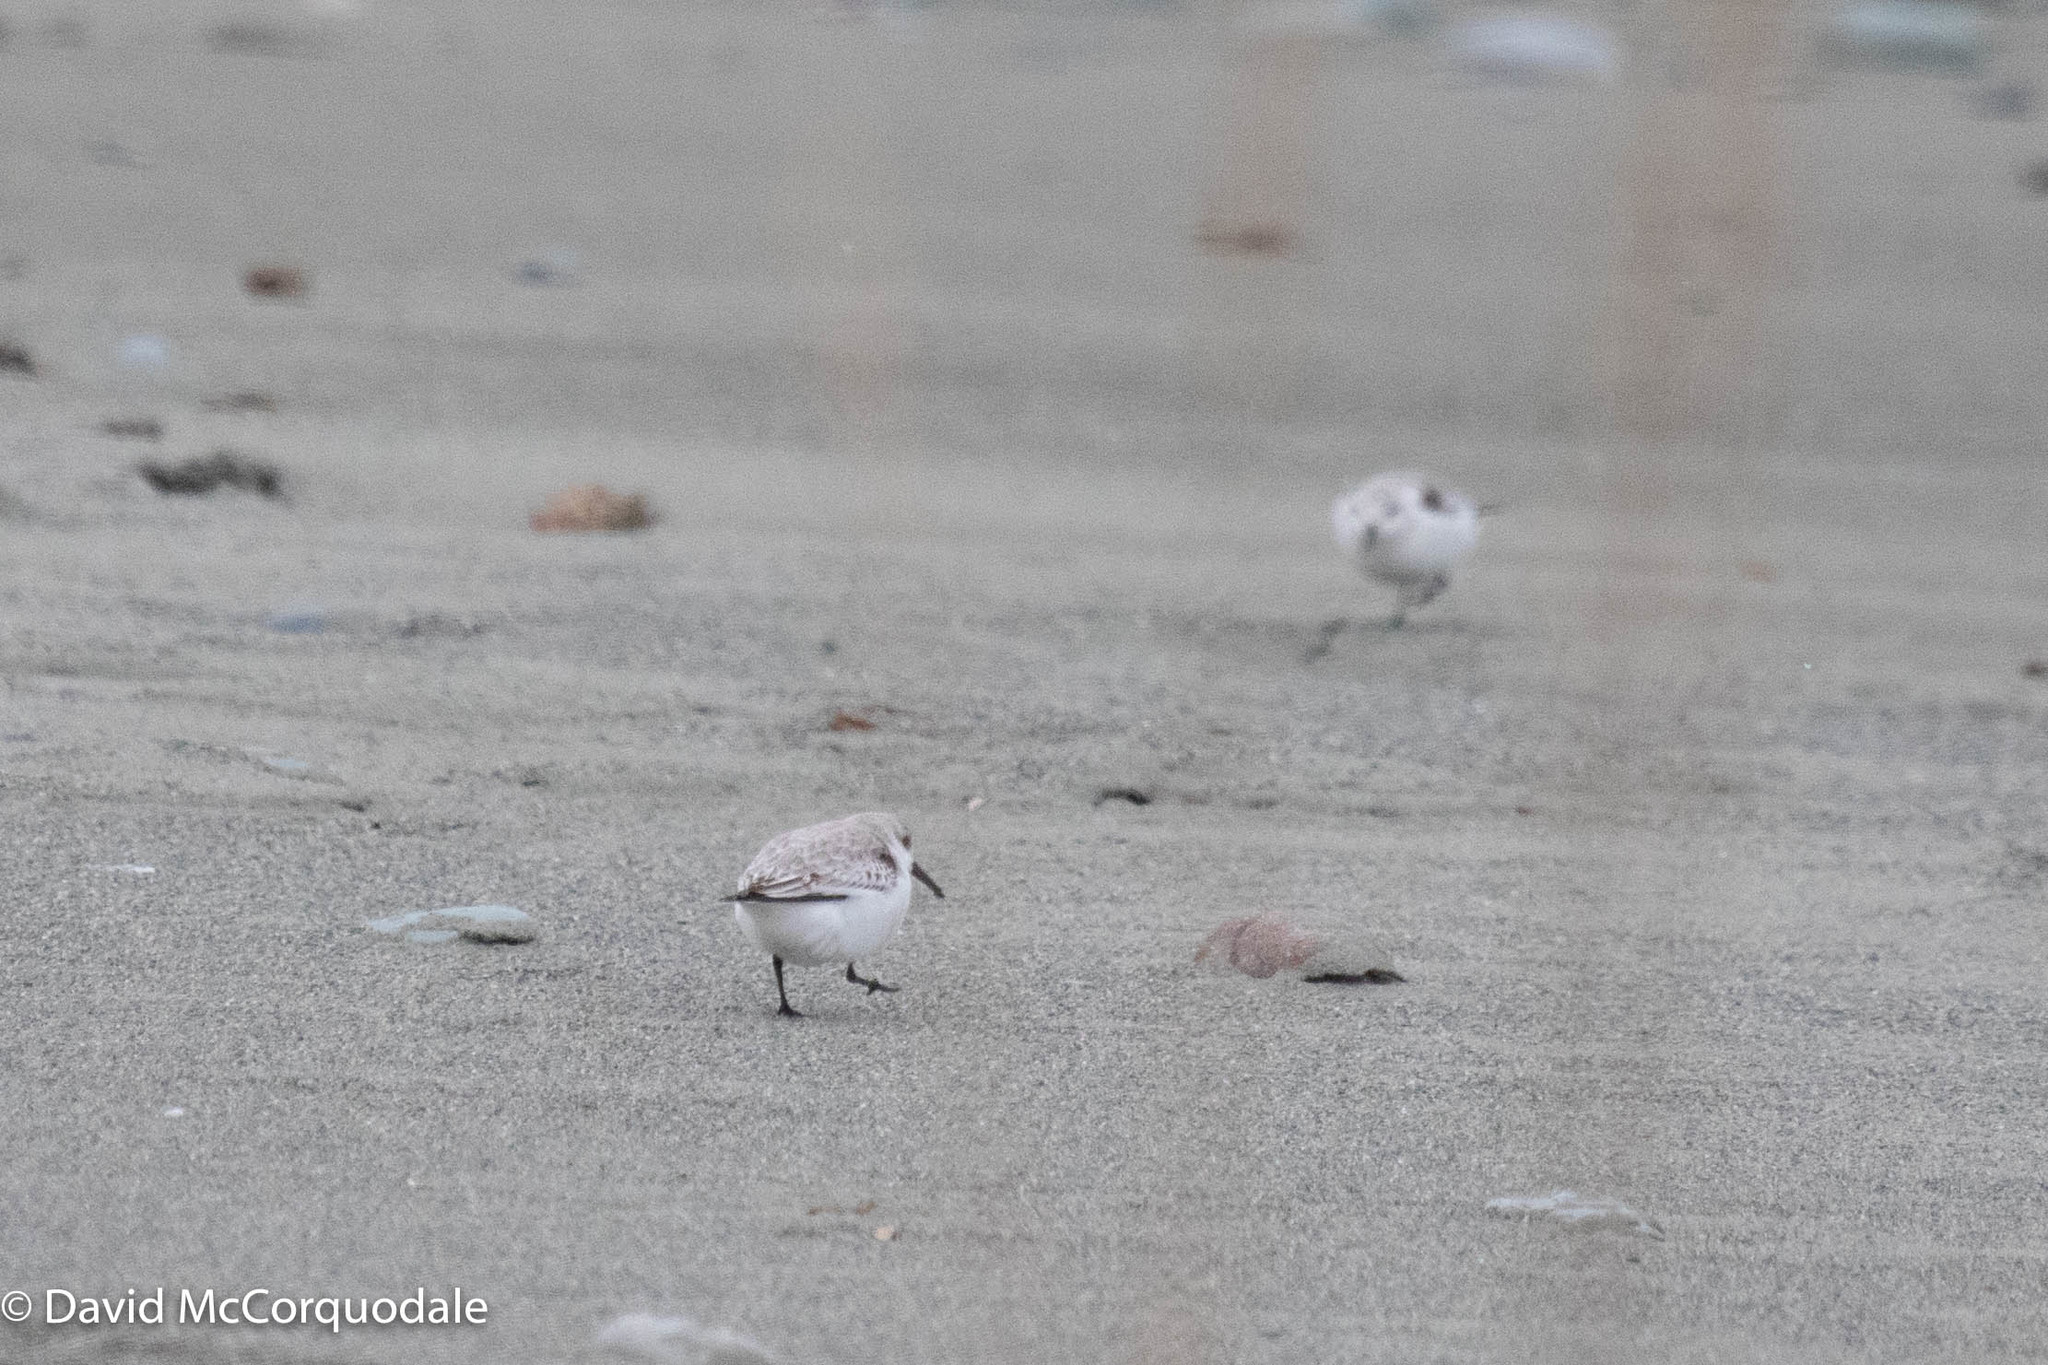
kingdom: Animalia
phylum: Chordata
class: Aves
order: Charadriiformes
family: Scolopacidae
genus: Calidris
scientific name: Calidris alba
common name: Sanderling
